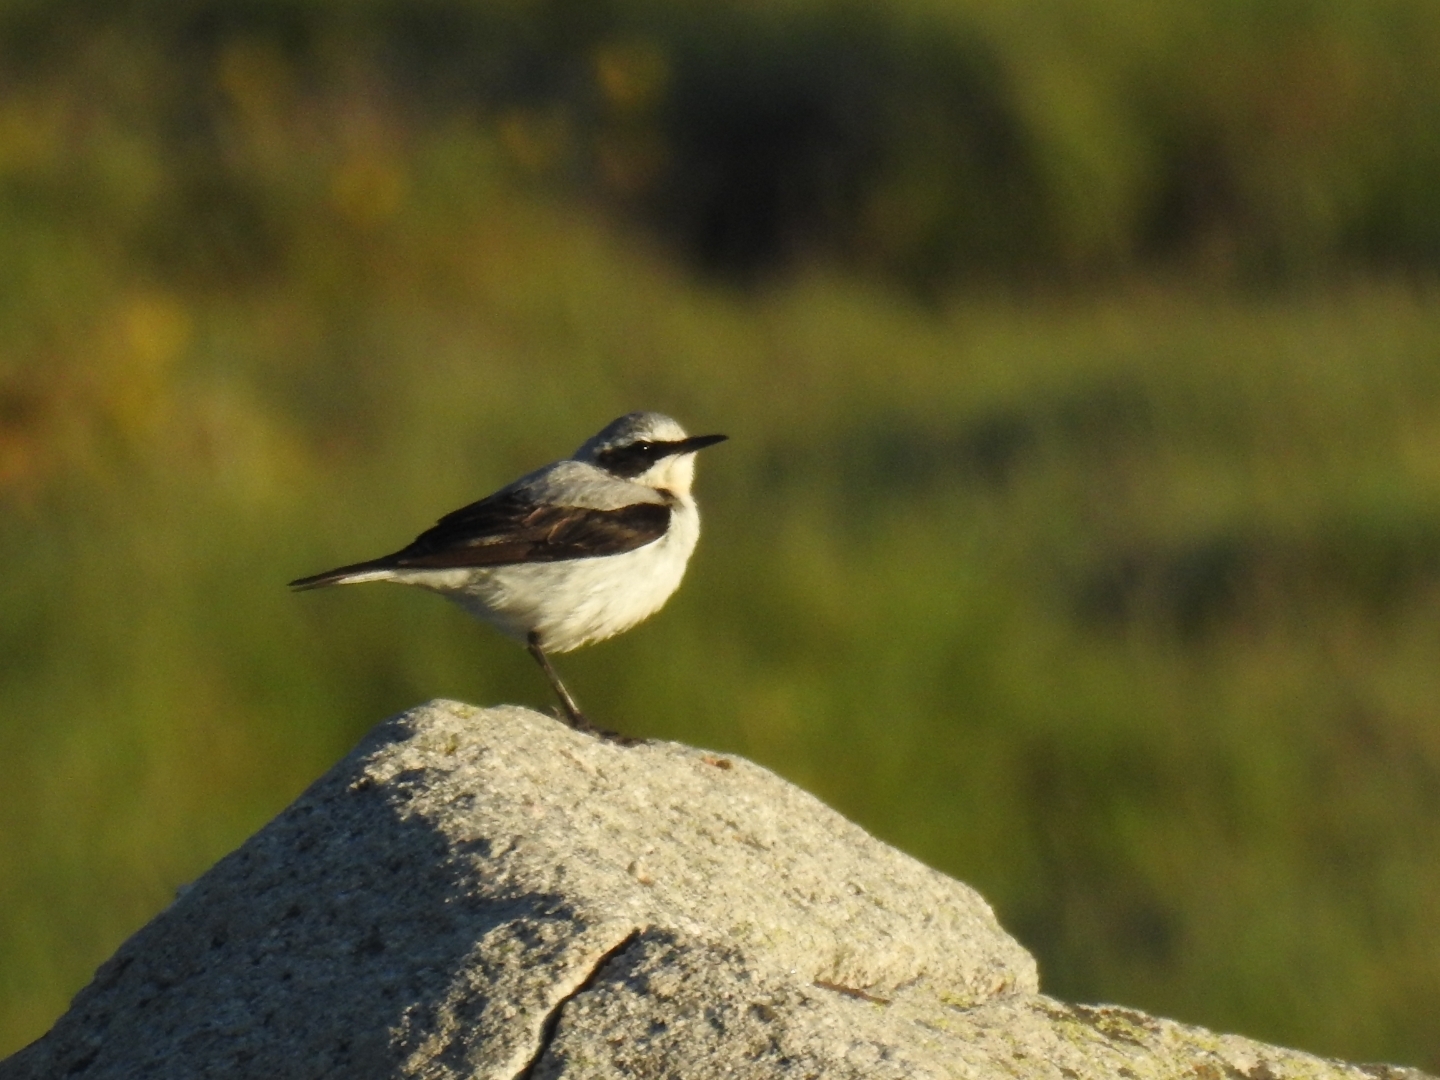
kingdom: Animalia
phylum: Chordata
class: Aves
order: Passeriformes
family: Muscicapidae
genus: Oenanthe
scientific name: Oenanthe oenanthe
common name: Northern wheatear
